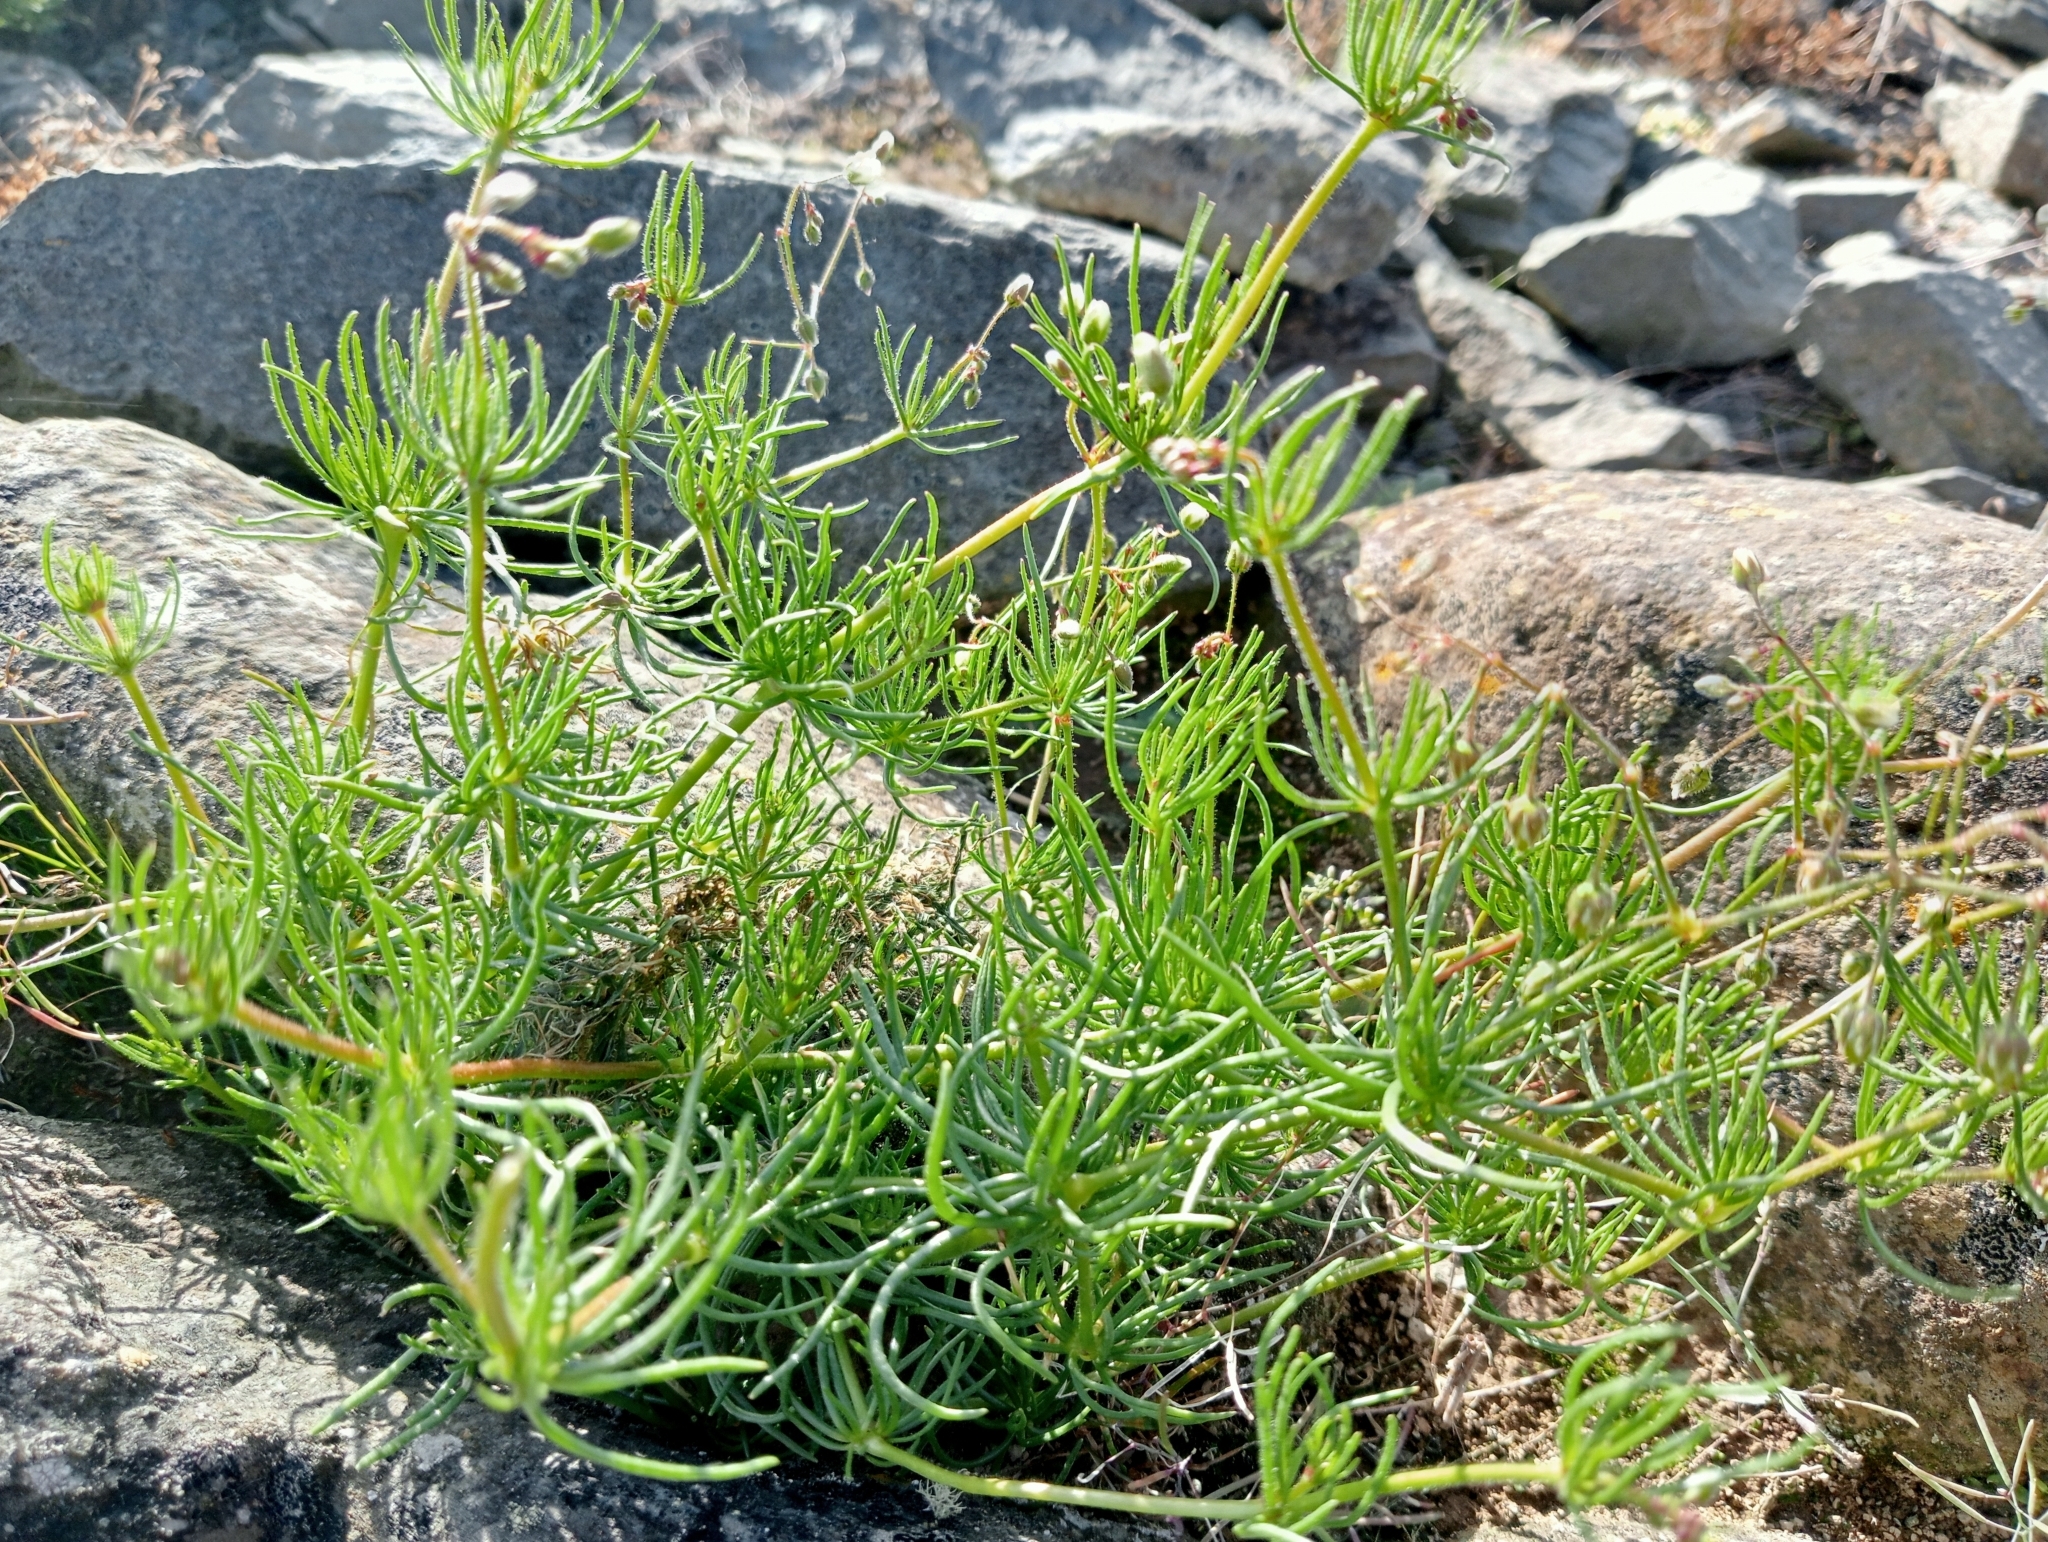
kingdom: Plantae
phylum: Tracheophyta
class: Magnoliopsida
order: Caryophyllales
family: Caryophyllaceae
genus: Spergula
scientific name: Spergula arvensis
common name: Corn spurrey
